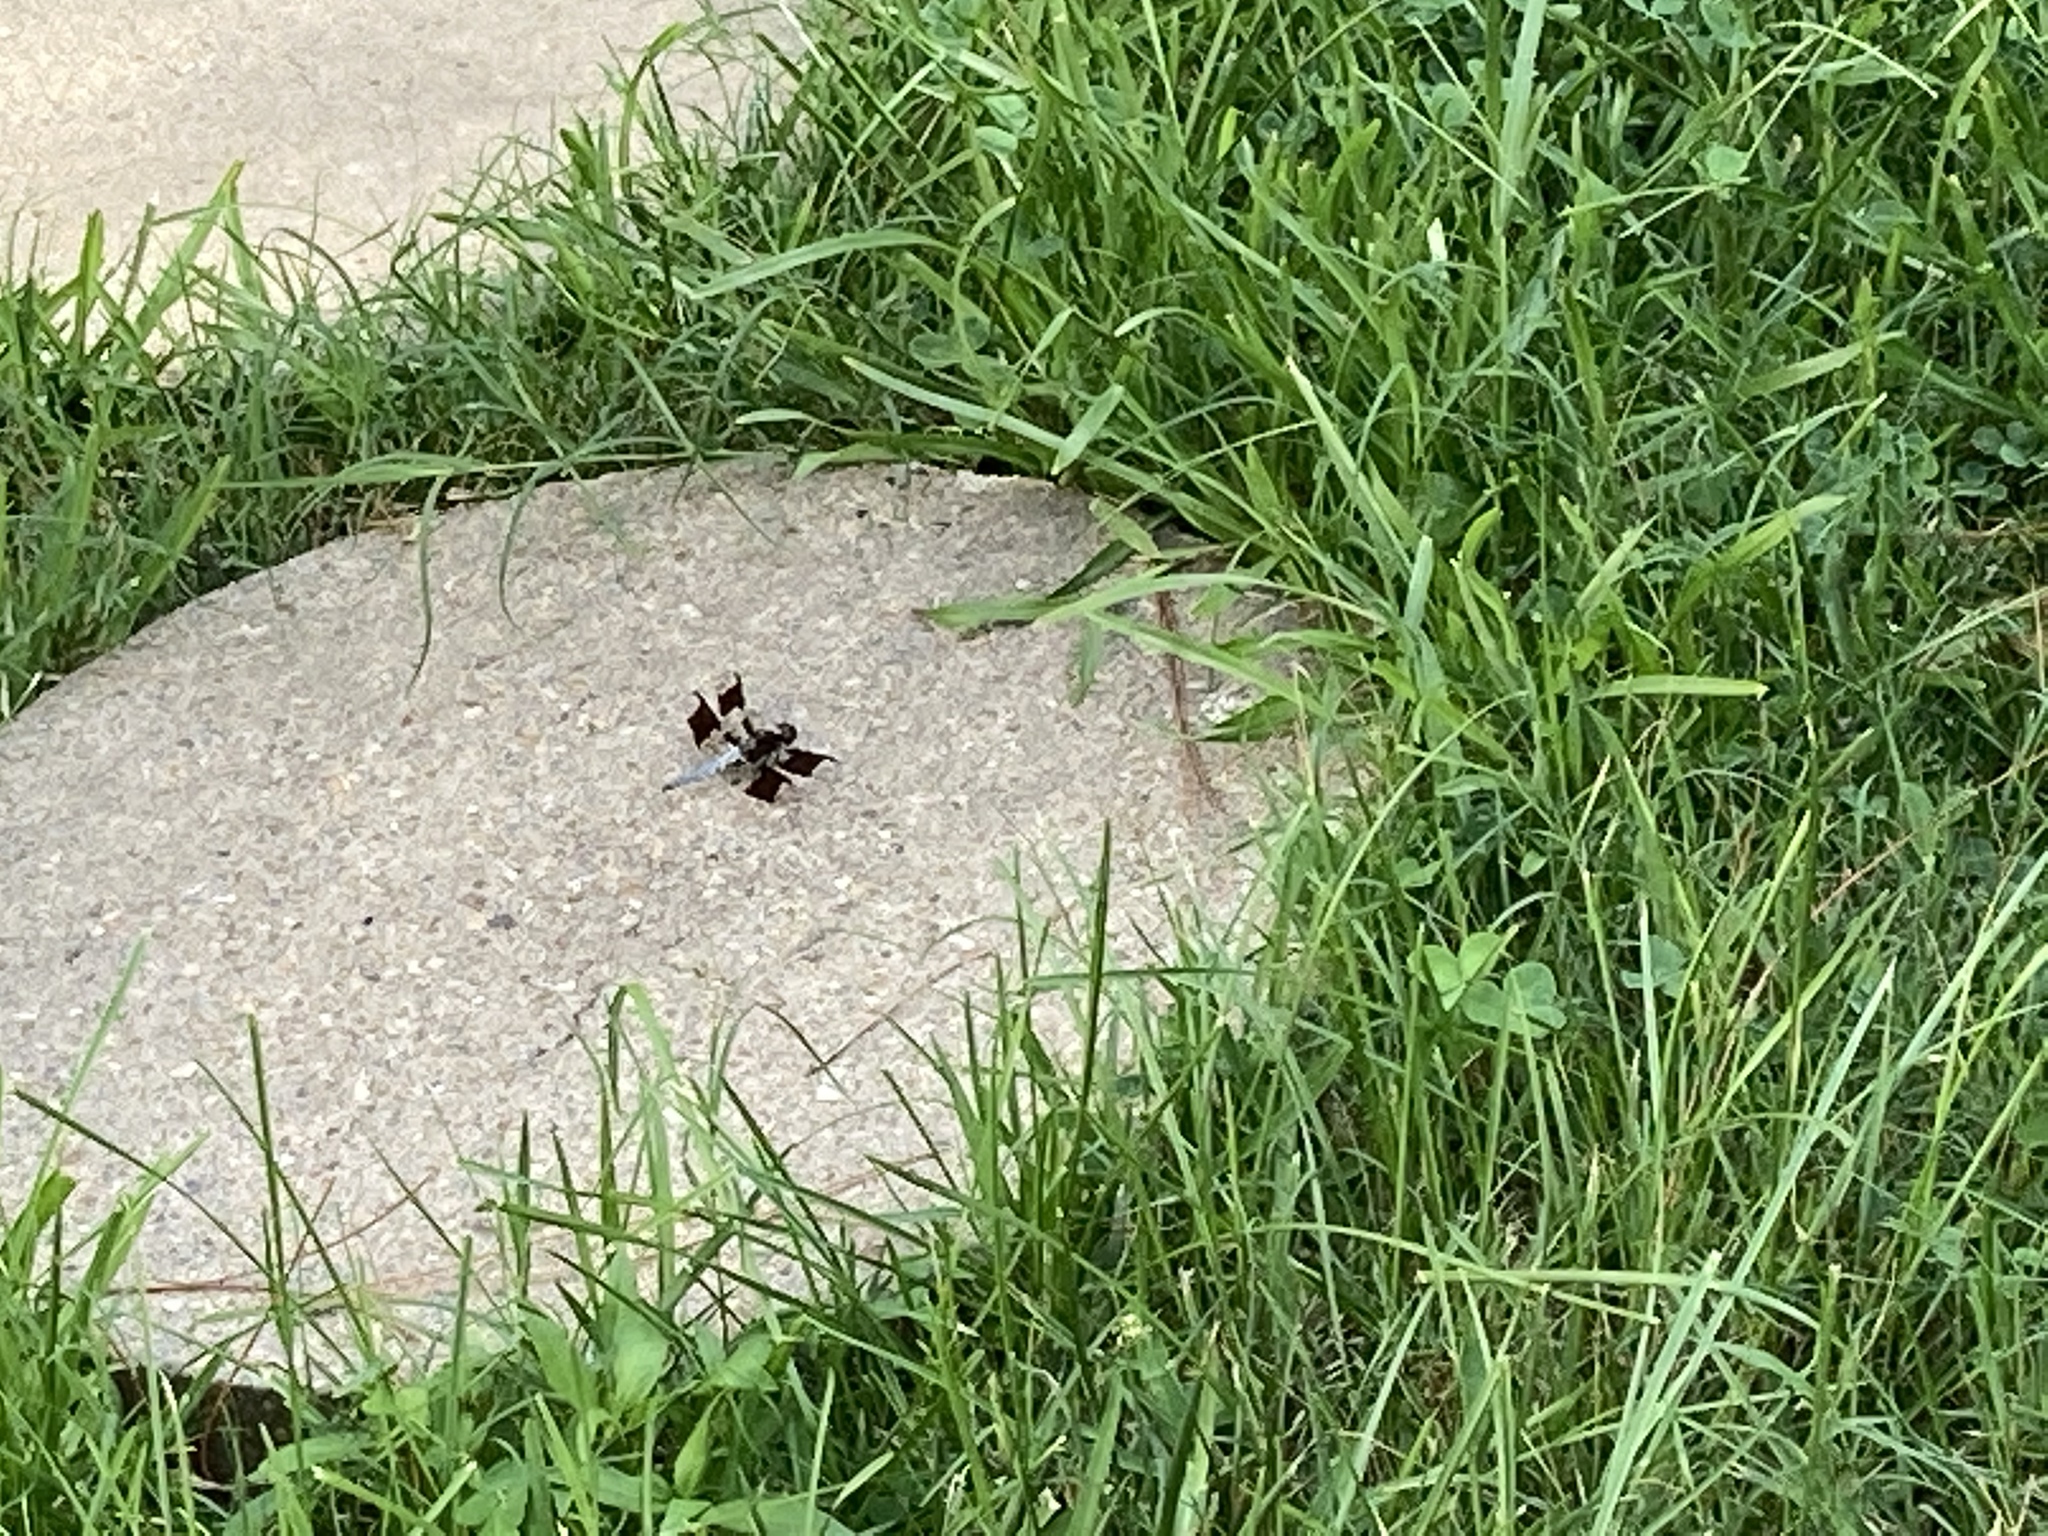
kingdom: Animalia
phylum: Arthropoda
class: Insecta
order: Odonata
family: Libellulidae
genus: Plathemis
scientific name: Plathemis lydia
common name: Common whitetail
